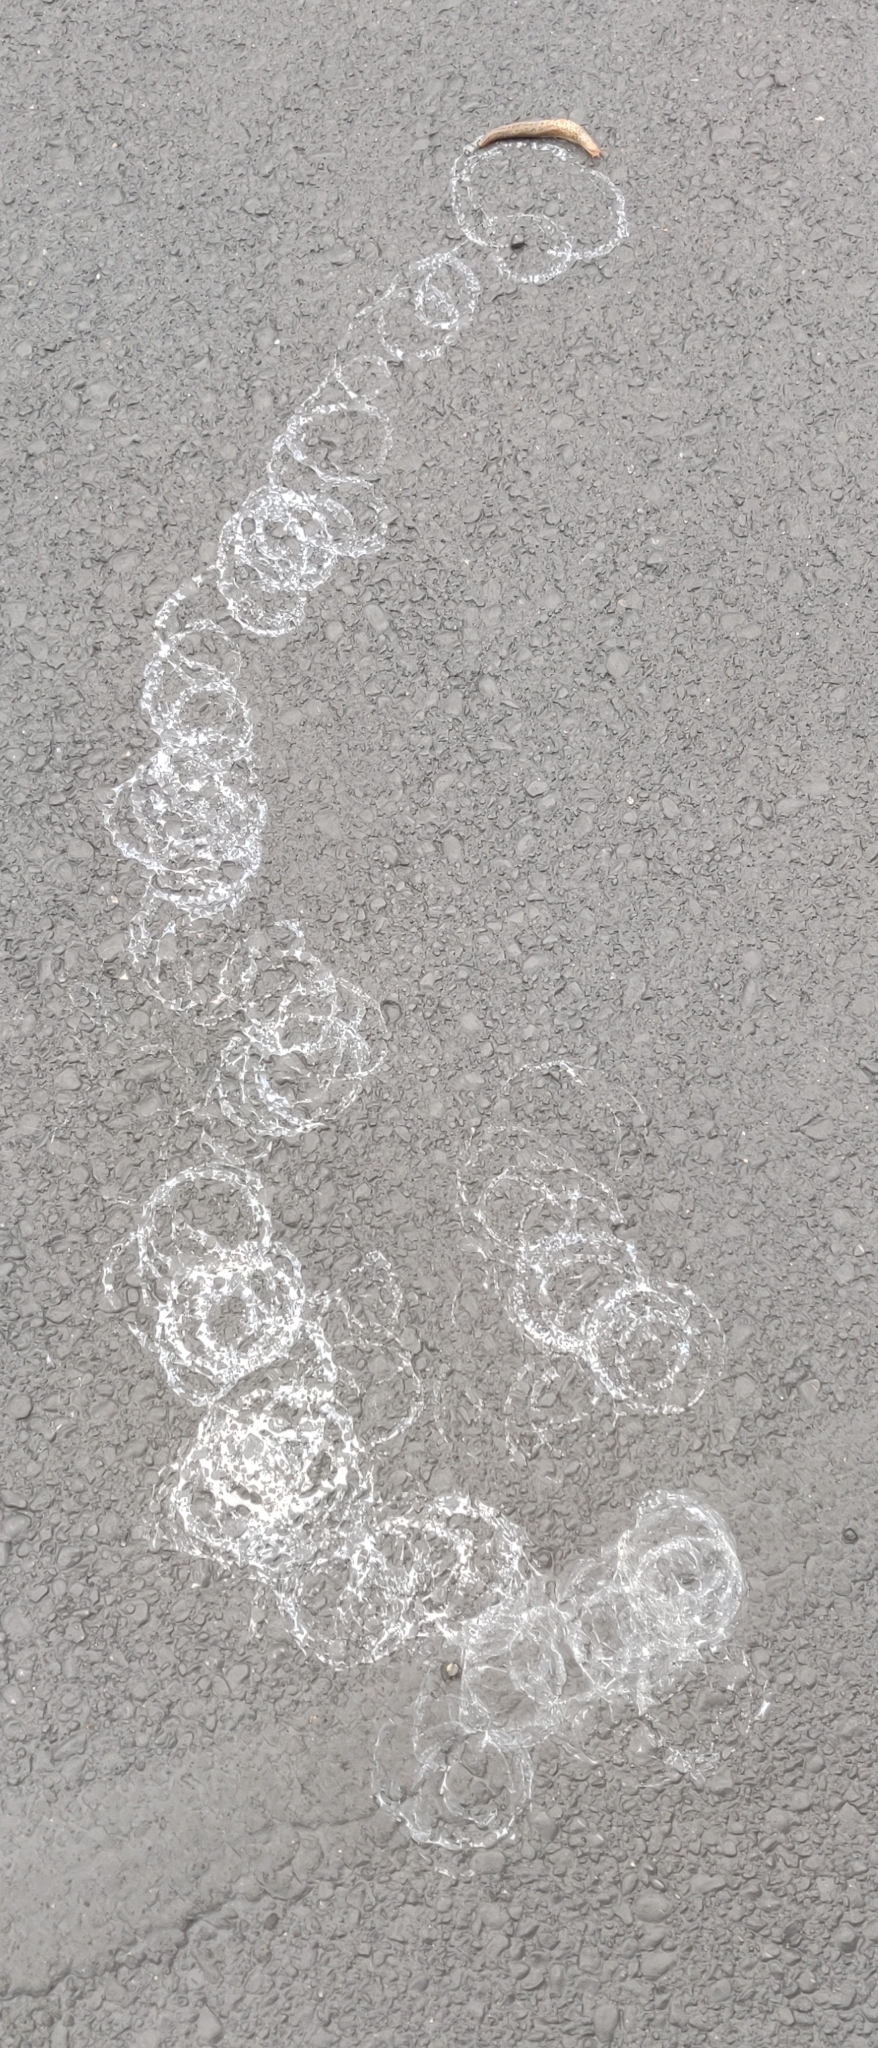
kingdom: Animalia
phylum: Mollusca
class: Gastropoda
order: Stylommatophora
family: Limacidae
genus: Limax
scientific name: Limax maximus
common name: Great grey slug
